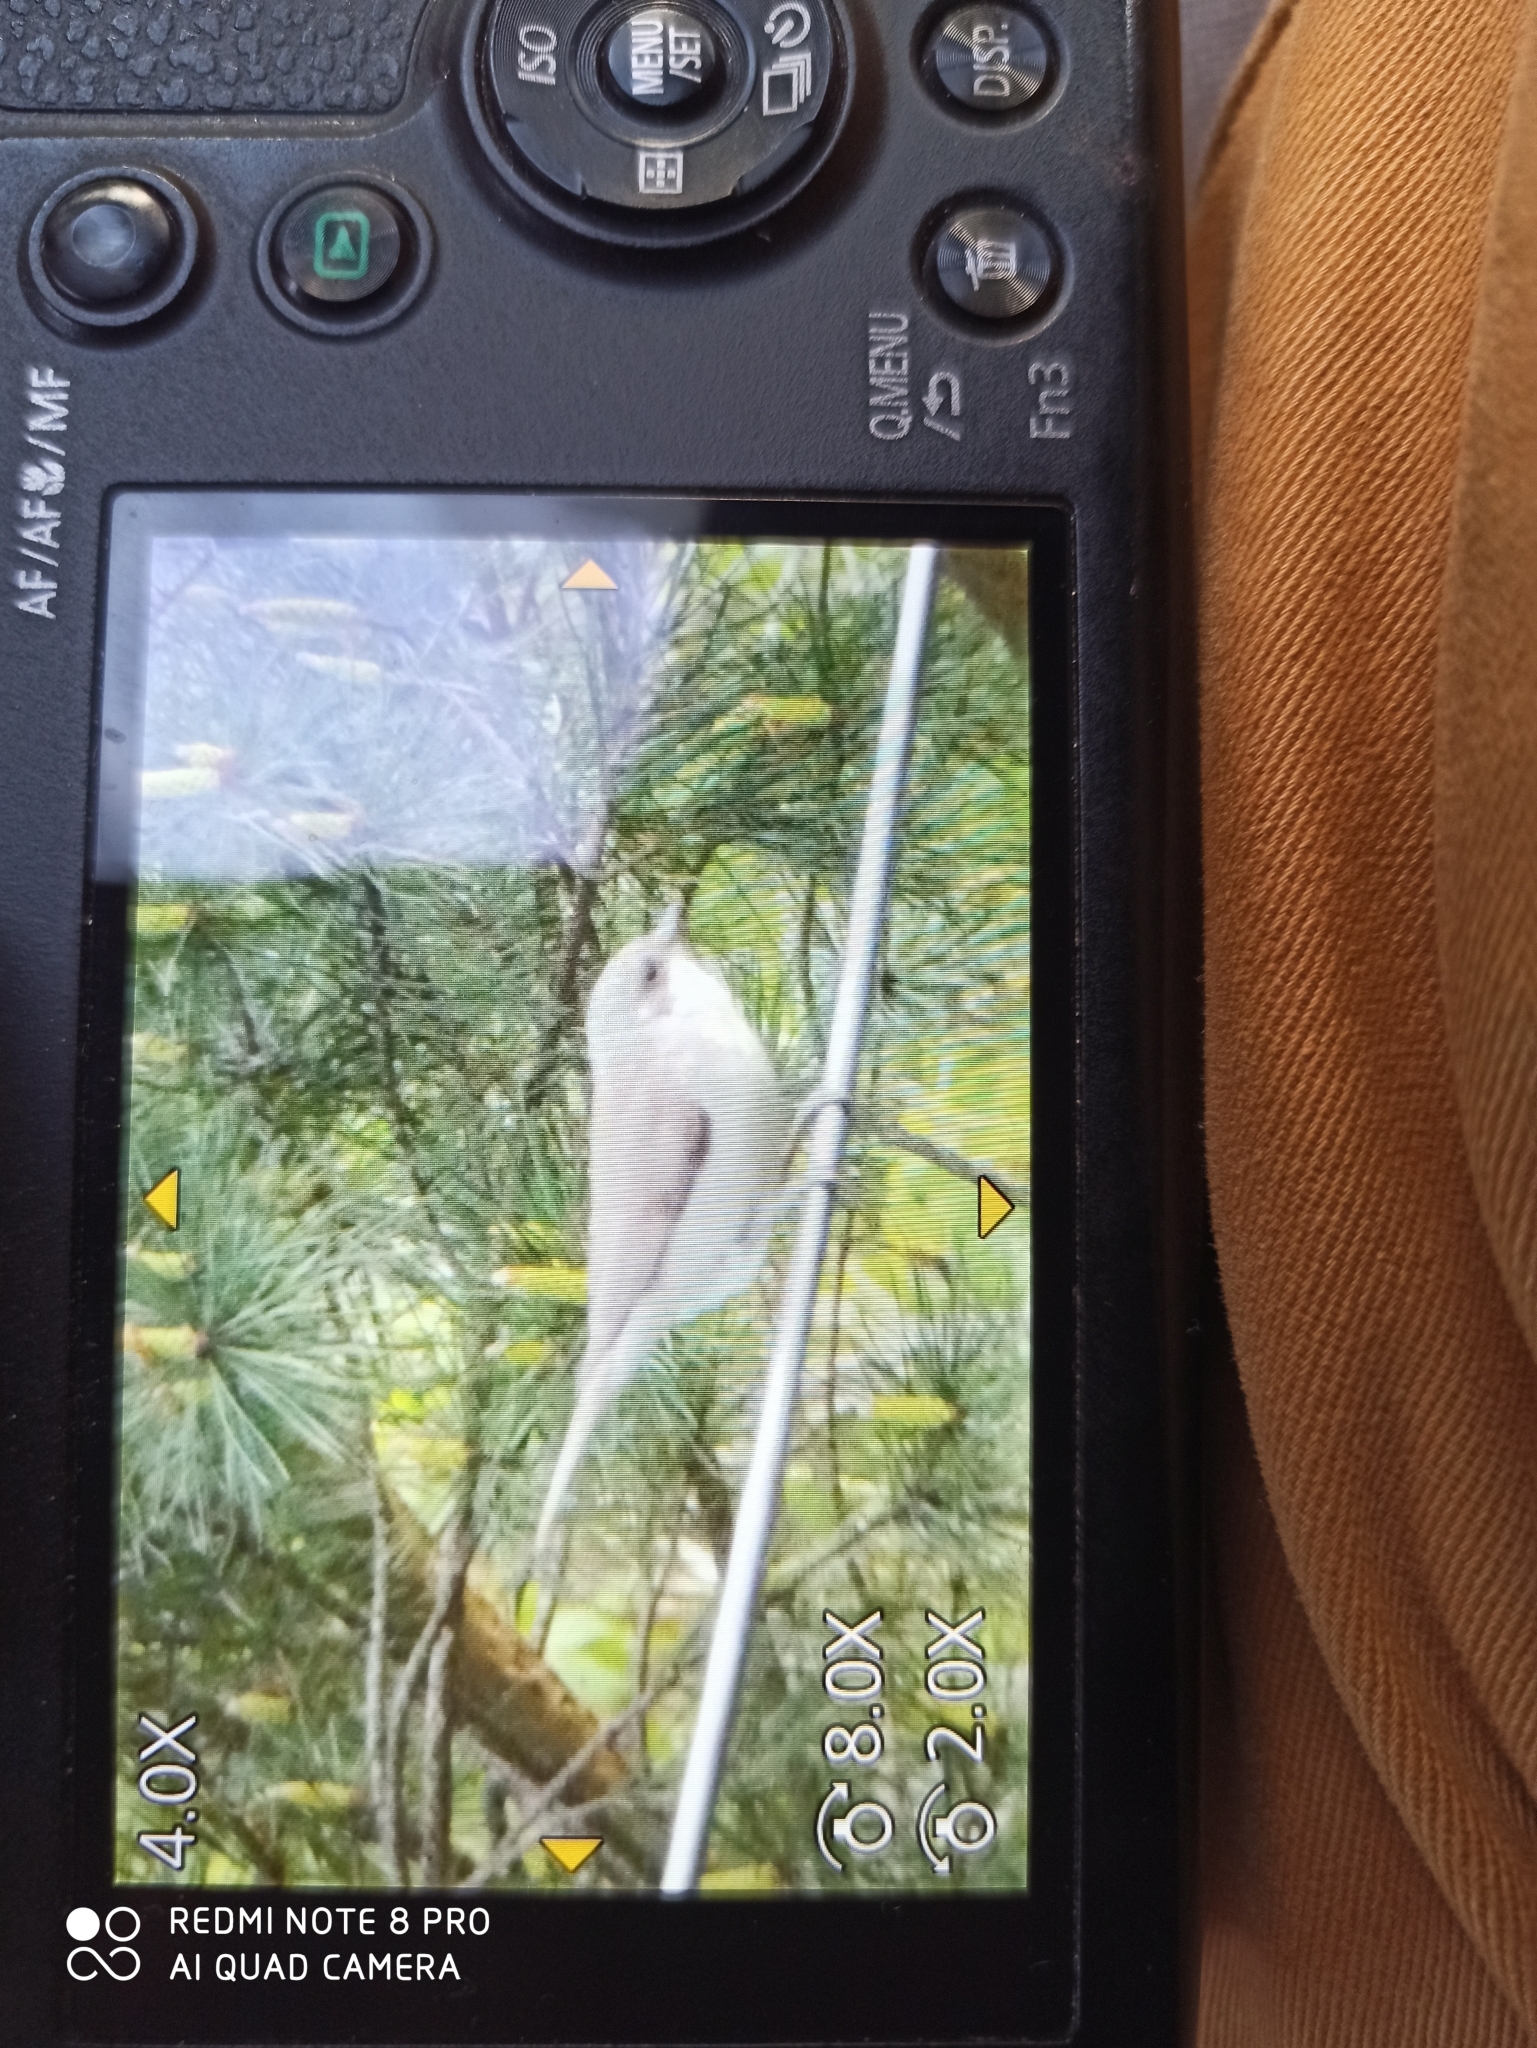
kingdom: Animalia
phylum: Chordata
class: Aves
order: Passeriformes
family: Sylviidae
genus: Sylvia
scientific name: Sylvia curruca
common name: Lesser whitethroat
